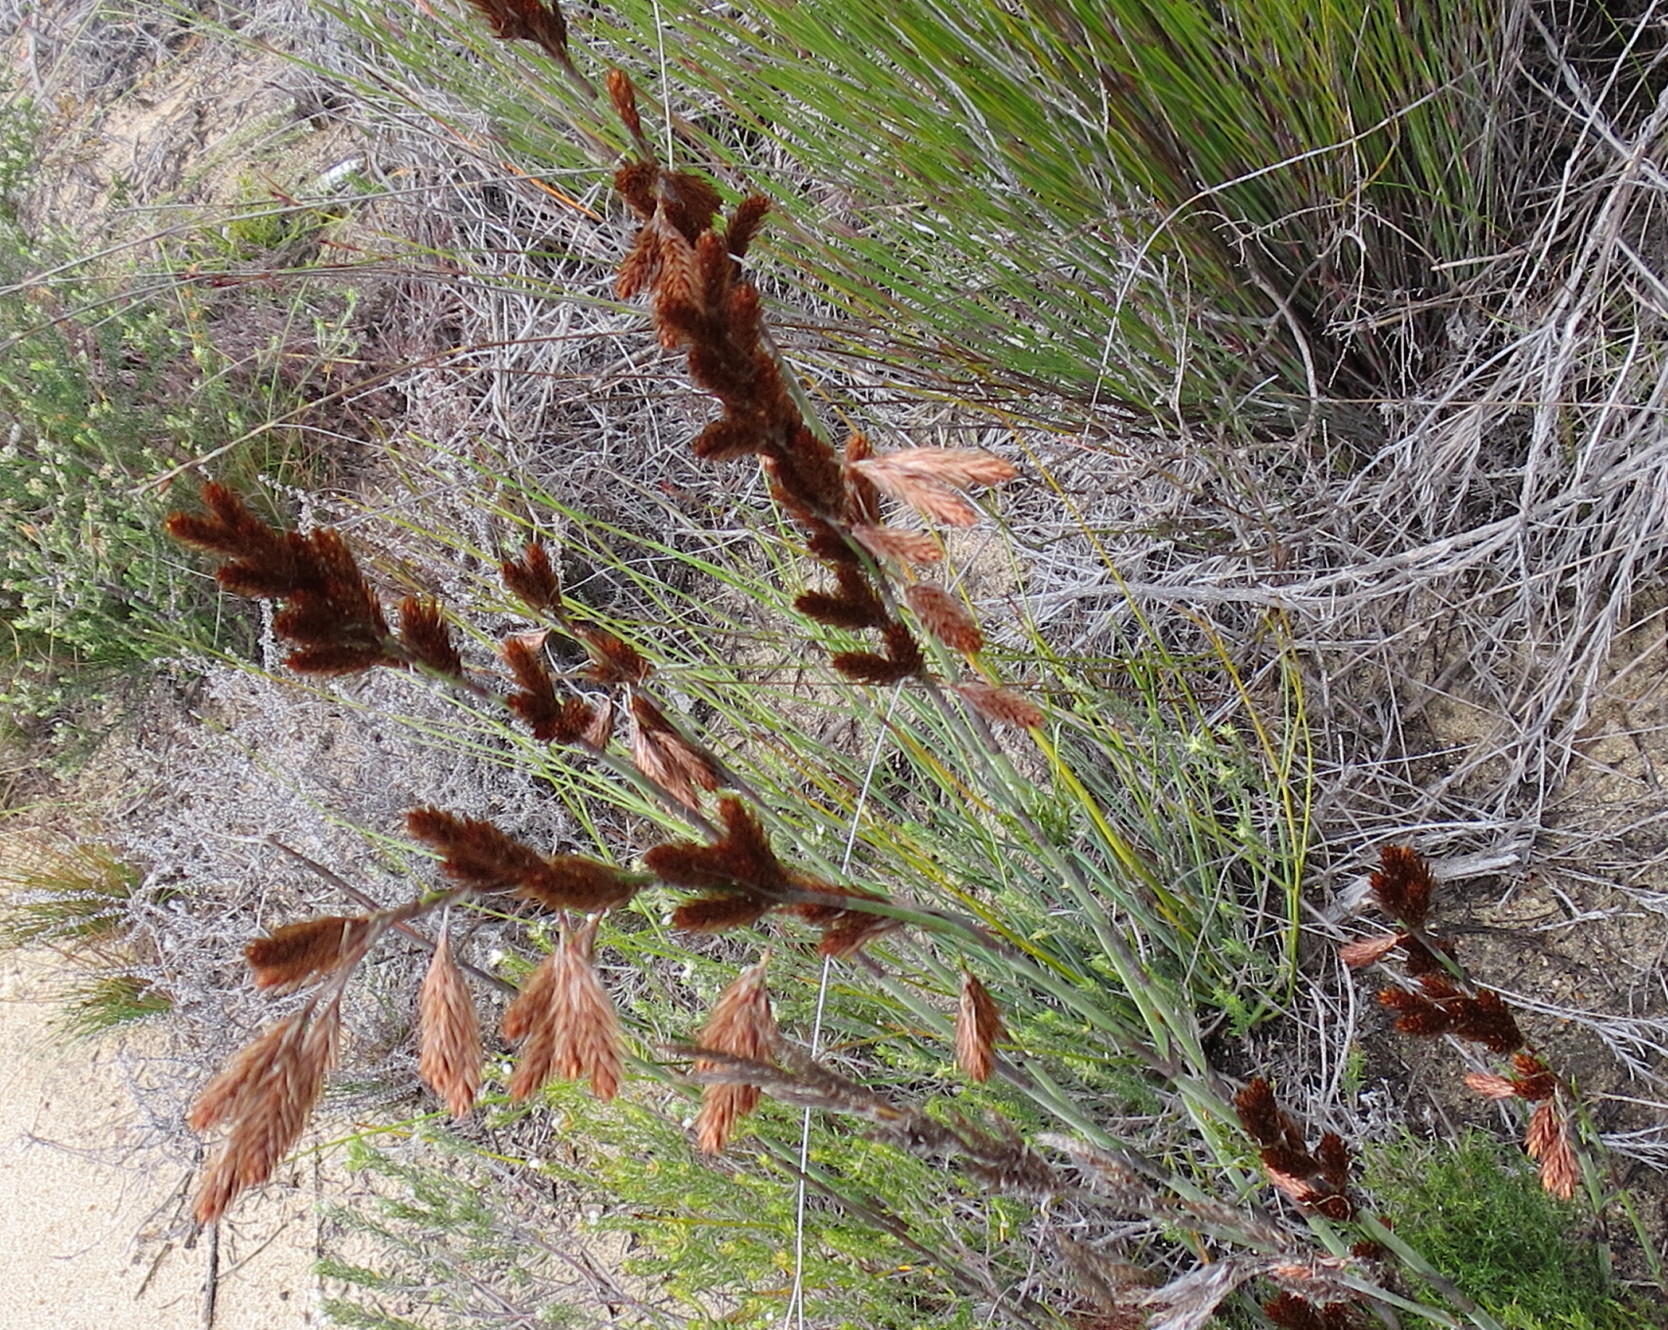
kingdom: Plantae
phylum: Tracheophyta
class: Liliopsida
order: Poales
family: Restionaceae
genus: Thamnochortus
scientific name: Thamnochortus rigidus
